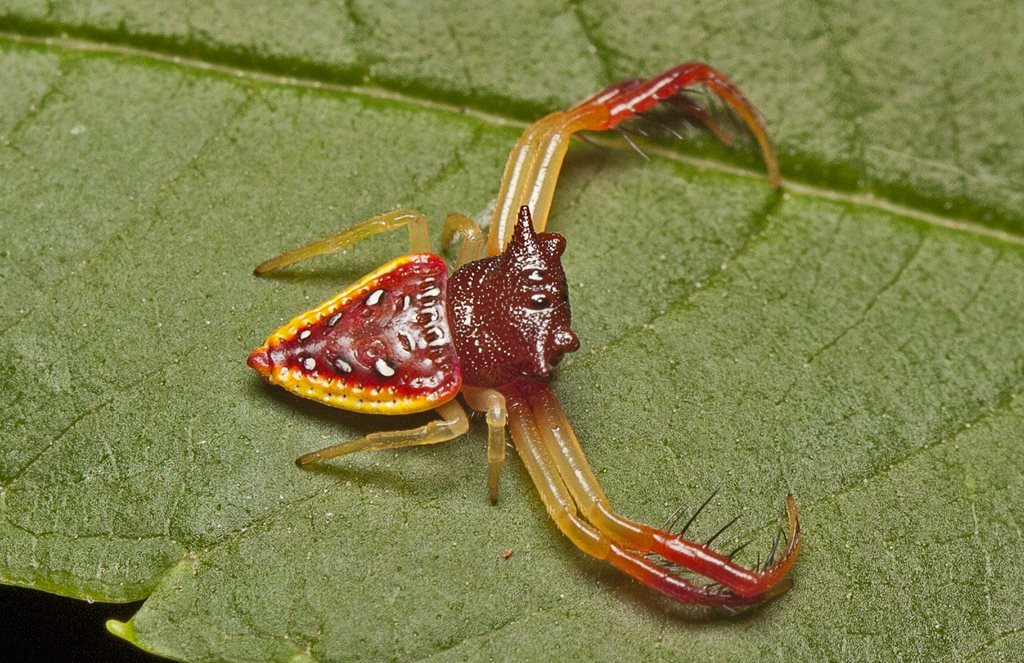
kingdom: Animalia
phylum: Arthropoda
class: Arachnida
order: Araneae
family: Arkyidae
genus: Arkys
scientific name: Arkys cornutus
